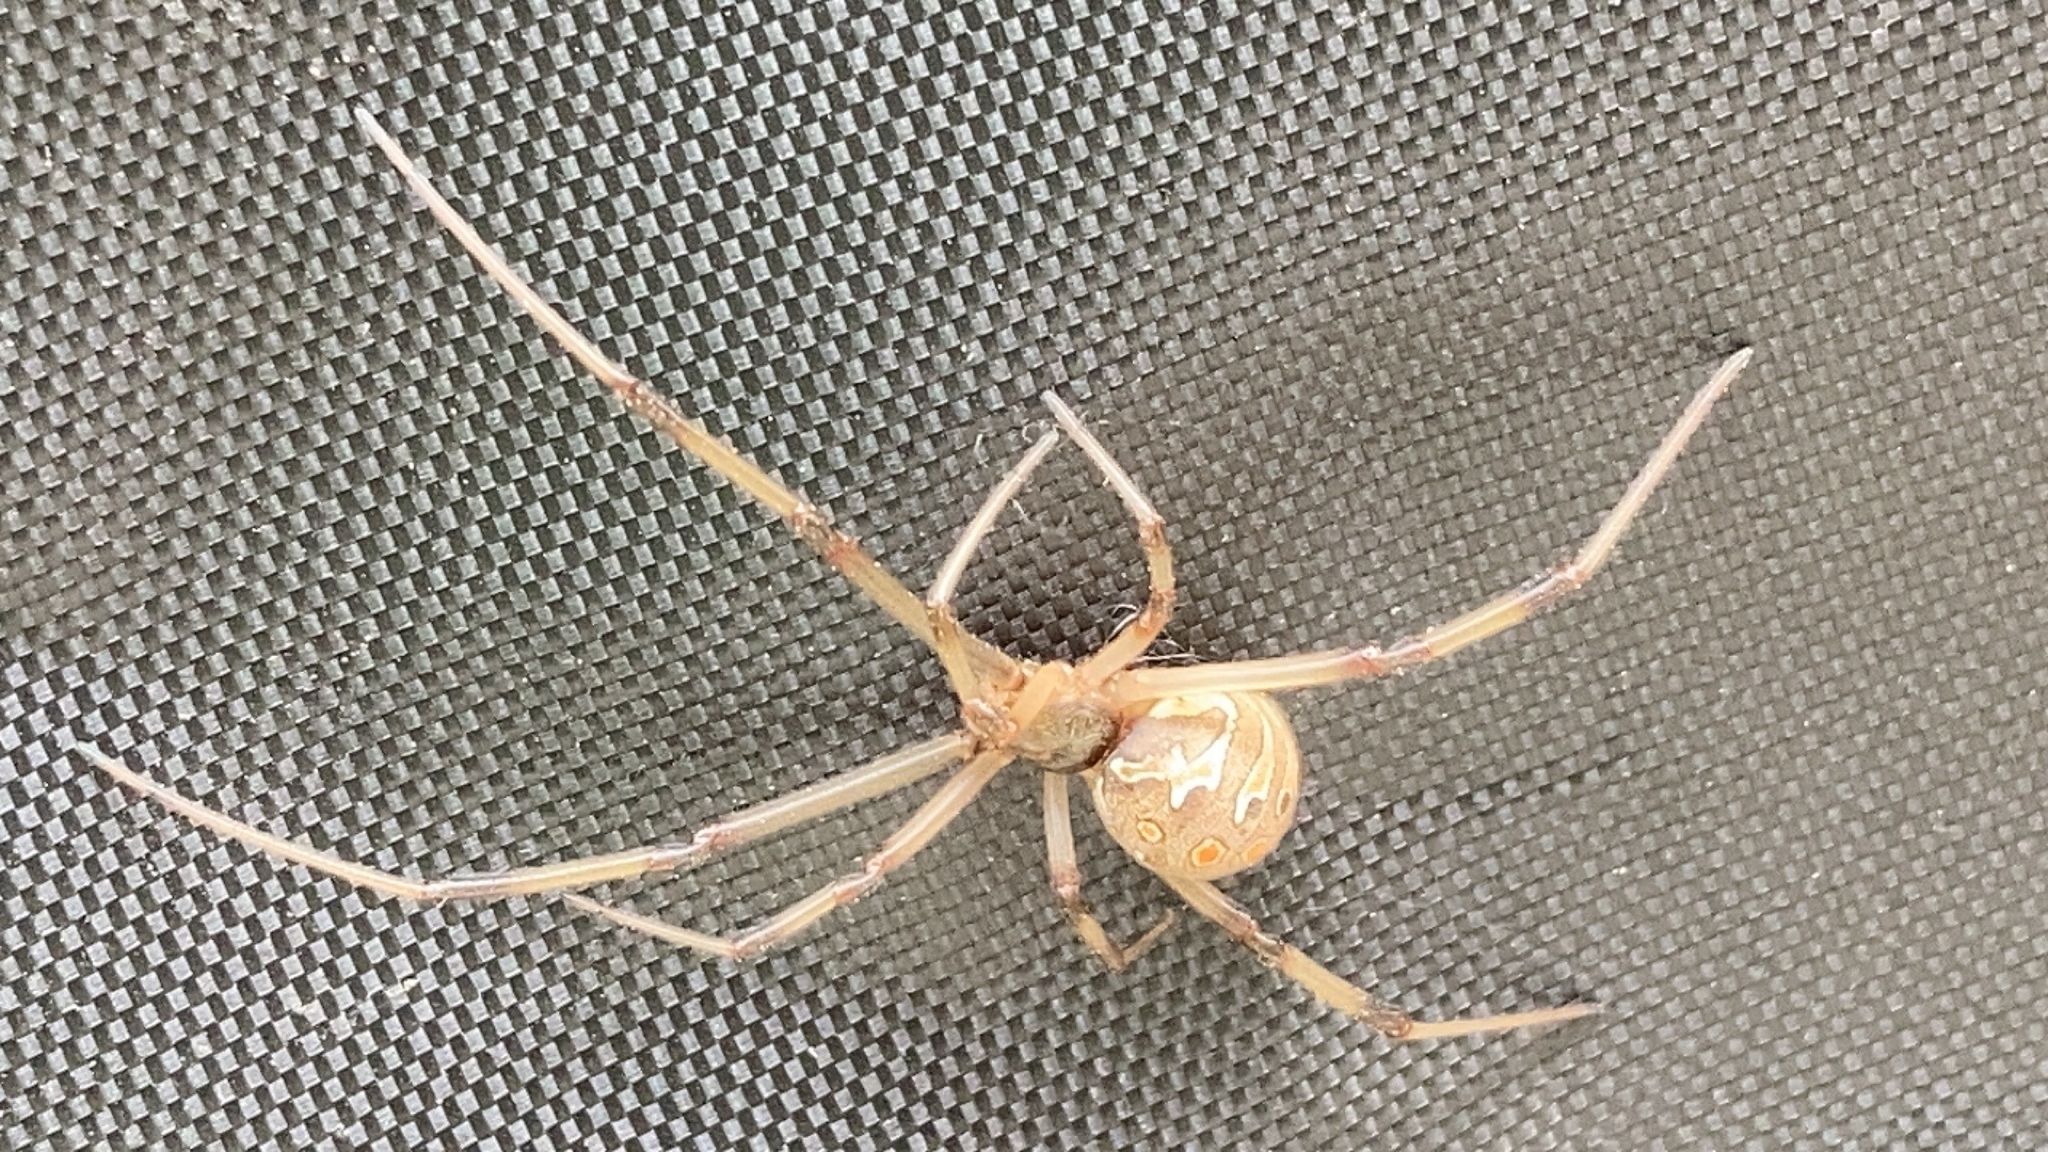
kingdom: Animalia
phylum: Arthropoda
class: Arachnida
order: Araneae
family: Theridiidae
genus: Latrodectus
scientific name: Latrodectus geometricus
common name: Brown widow spider
